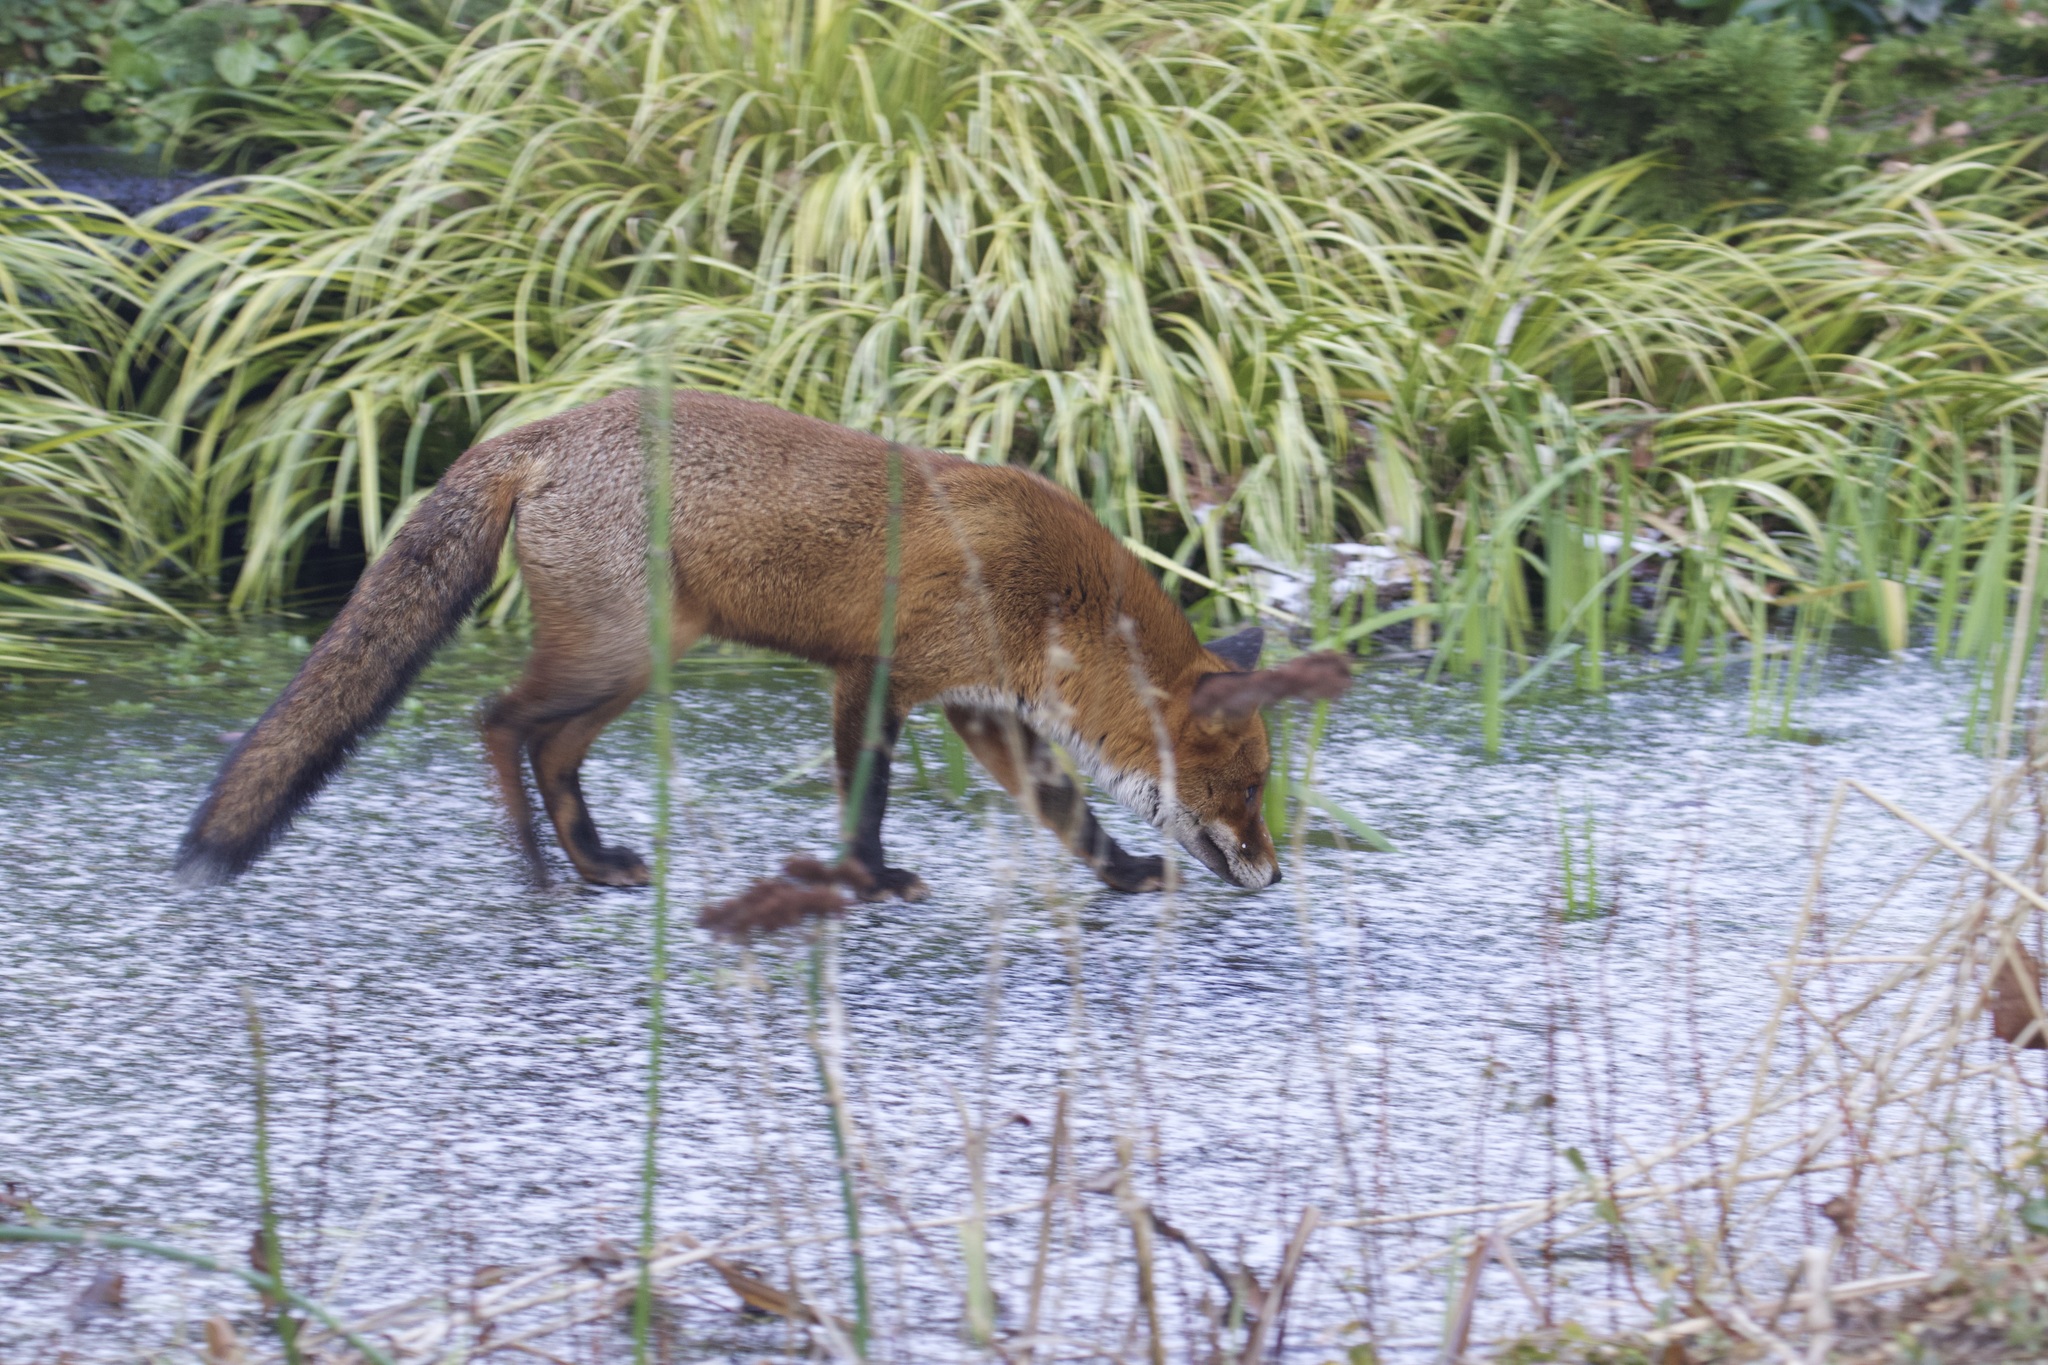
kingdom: Animalia
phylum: Chordata
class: Mammalia
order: Carnivora
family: Canidae
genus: Vulpes
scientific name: Vulpes vulpes
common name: Red fox
